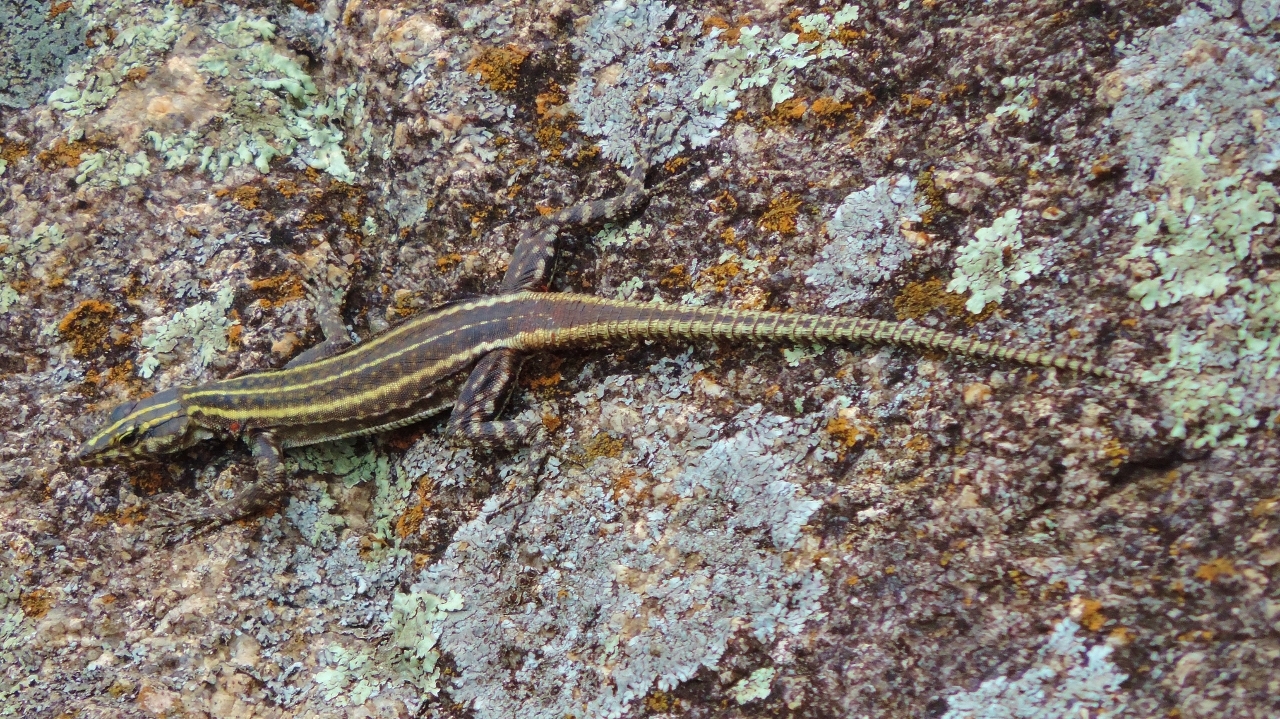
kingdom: Animalia
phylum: Chordata
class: Squamata
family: Cordylidae
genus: Platysaurus
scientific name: Platysaurus intermedius
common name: Common flat lizard
